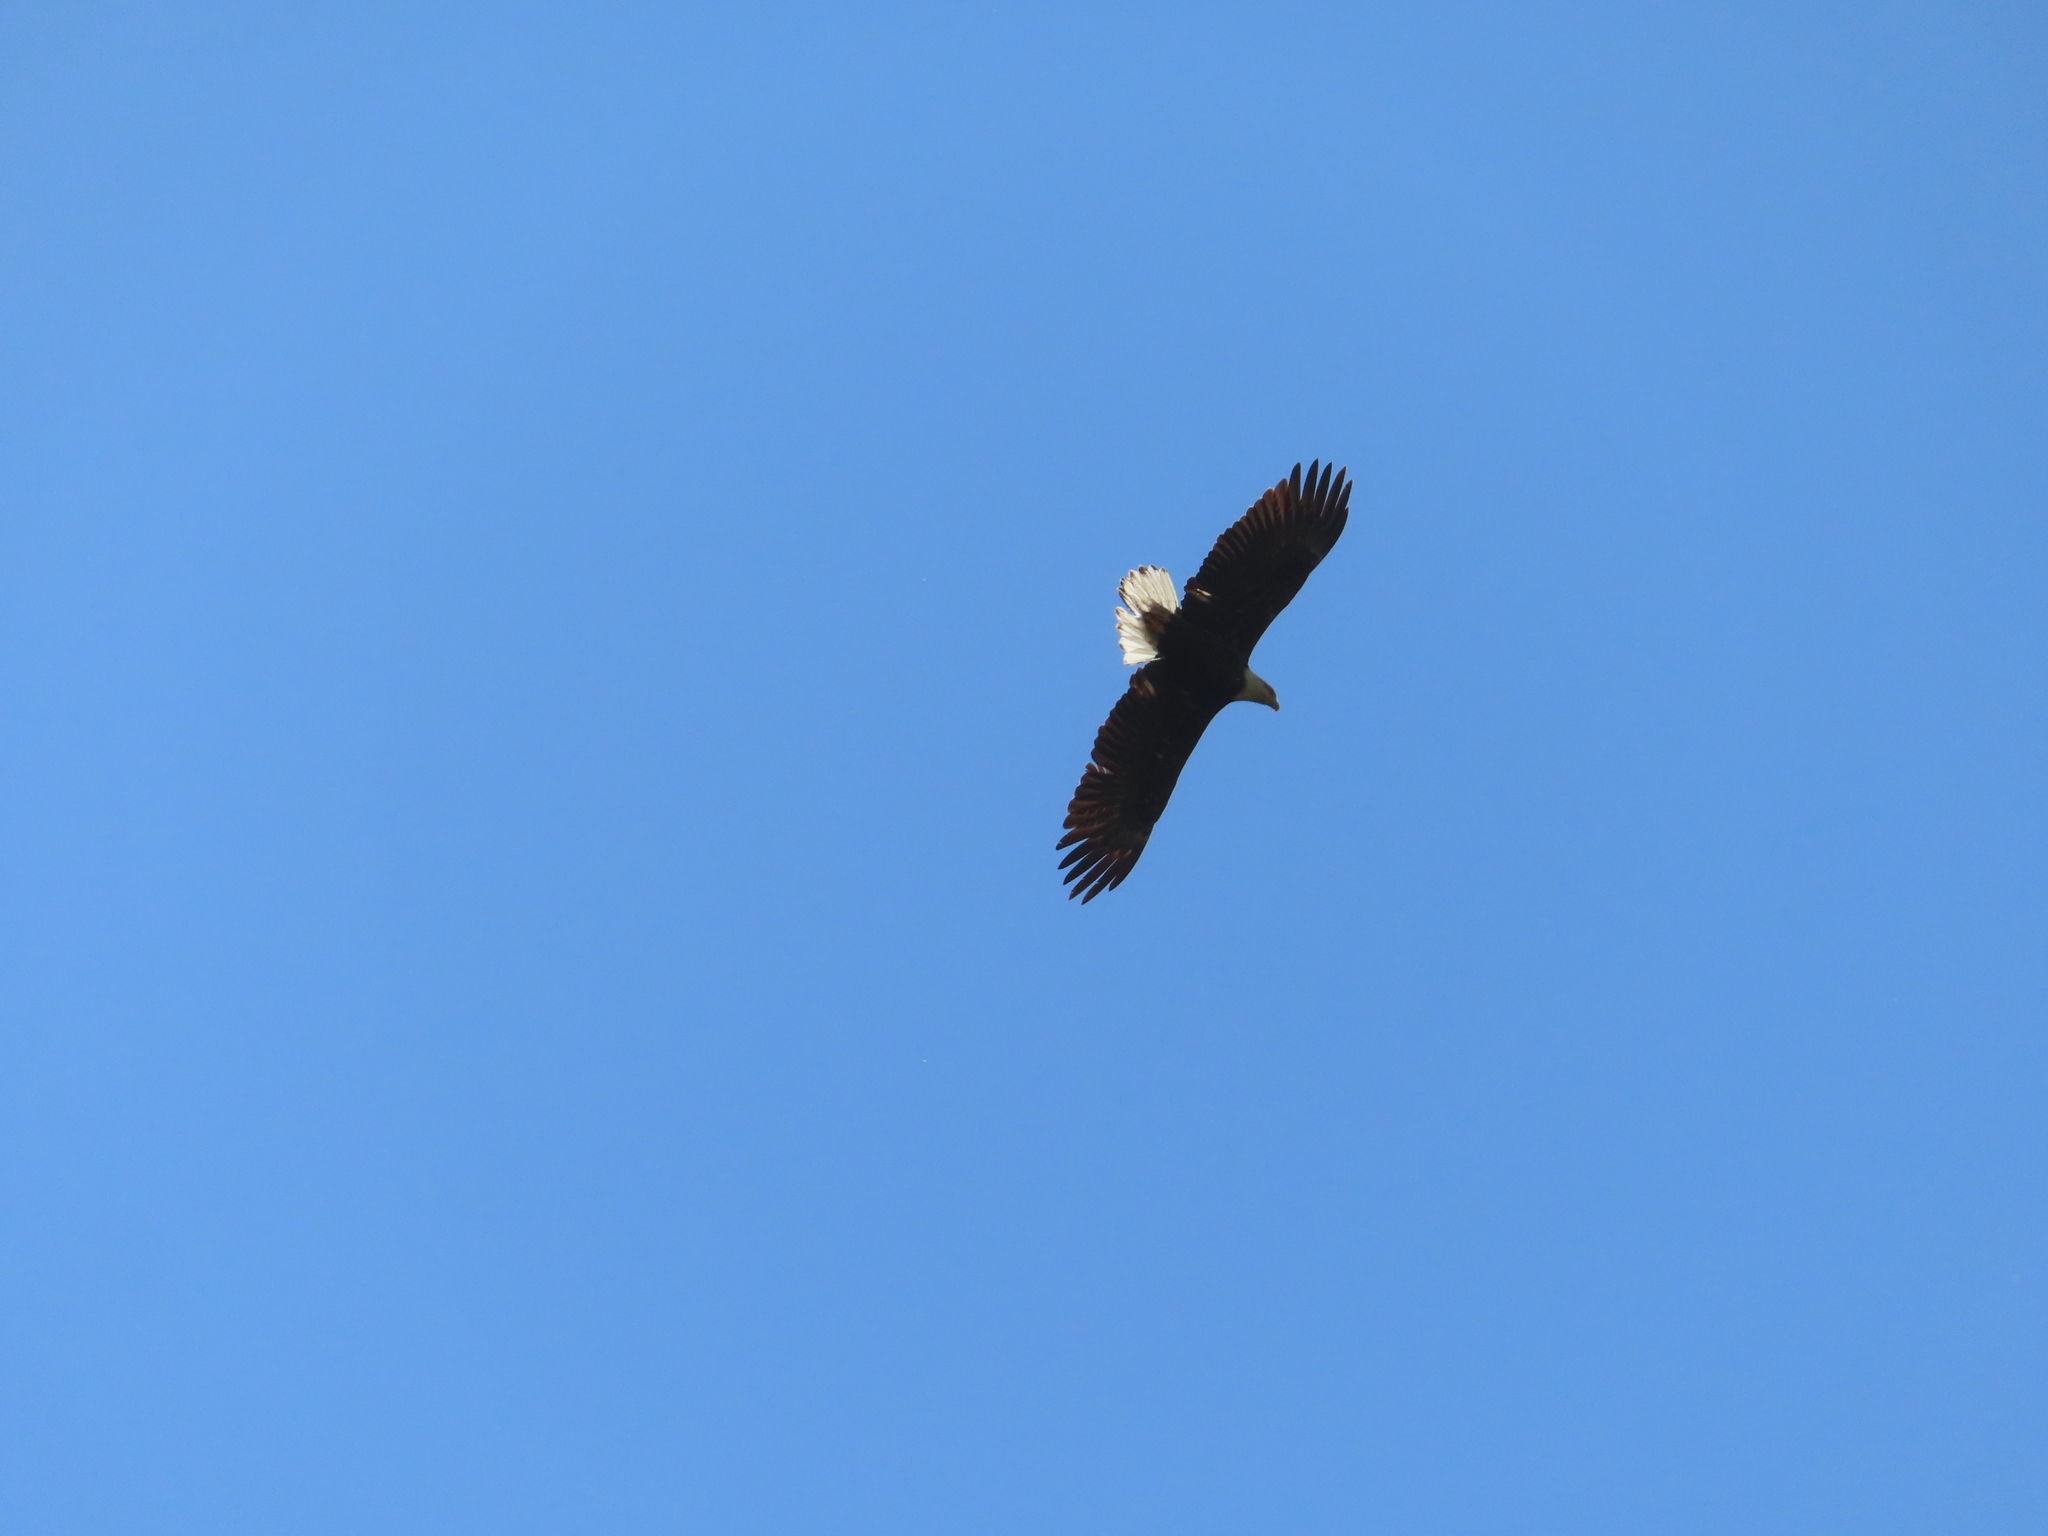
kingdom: Animalia
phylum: Chordata
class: Aves
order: Accipitriformes
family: Accipitridae
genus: Haliaeetus
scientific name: Haliaeetus leucocephalus
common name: Bald eagle
